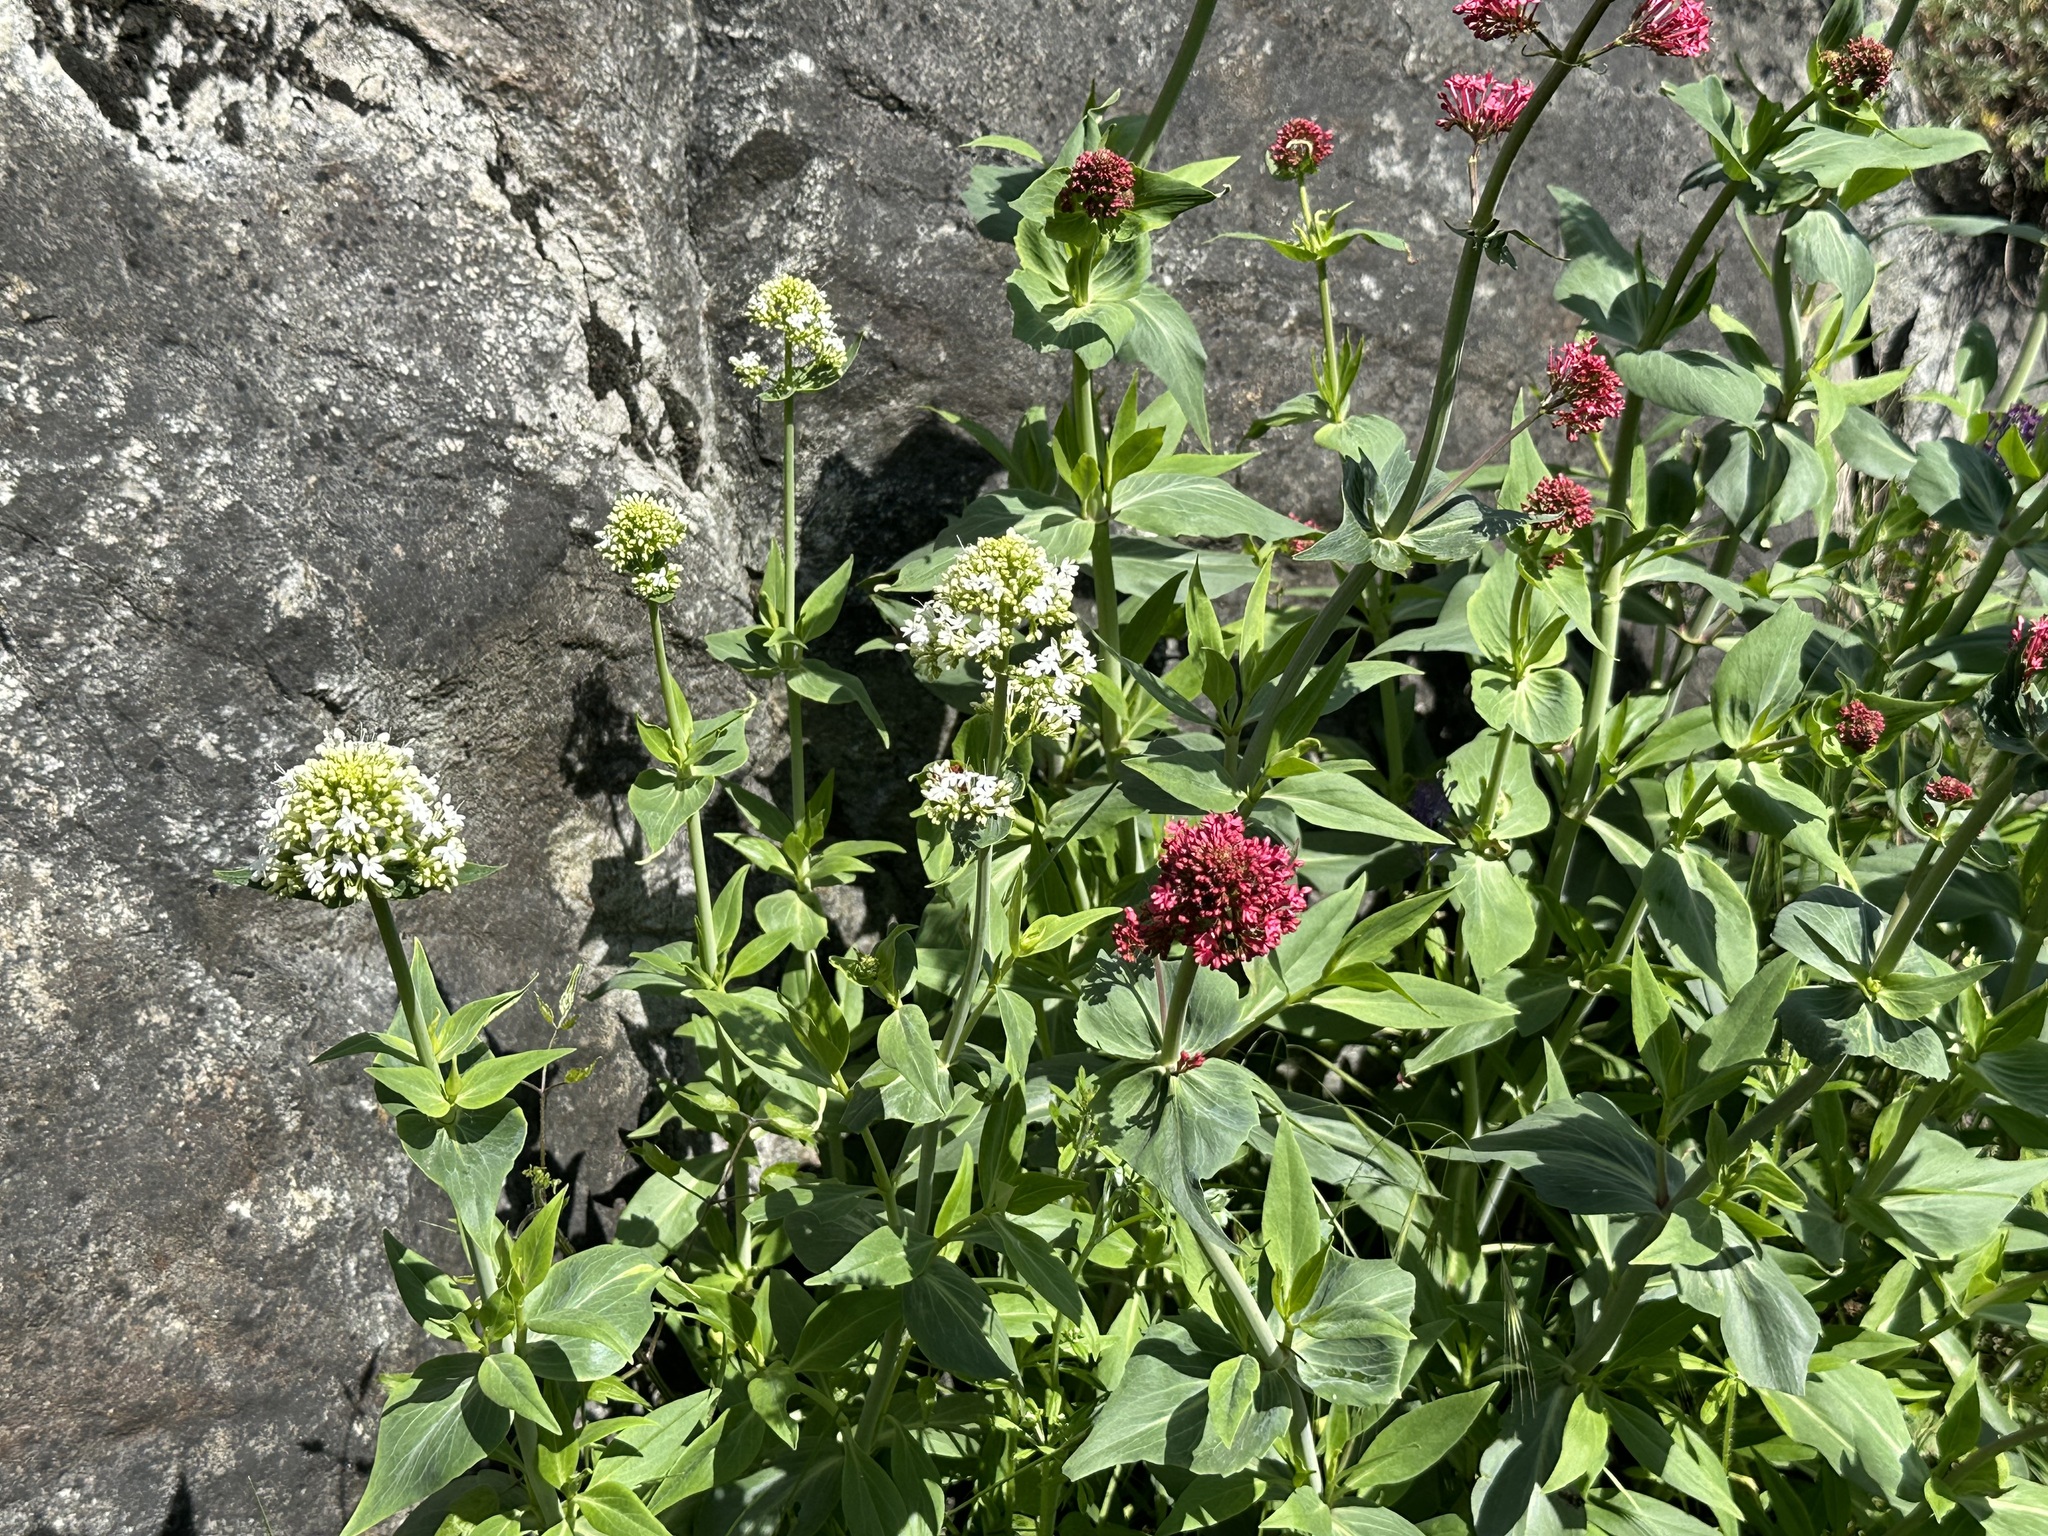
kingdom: Plantae
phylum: Tracheophyta
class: Magnoliopsida
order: Dipsacales
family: Caprifoliaceae
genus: Centranthus
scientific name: Centranthus ruber
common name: Red valerian
